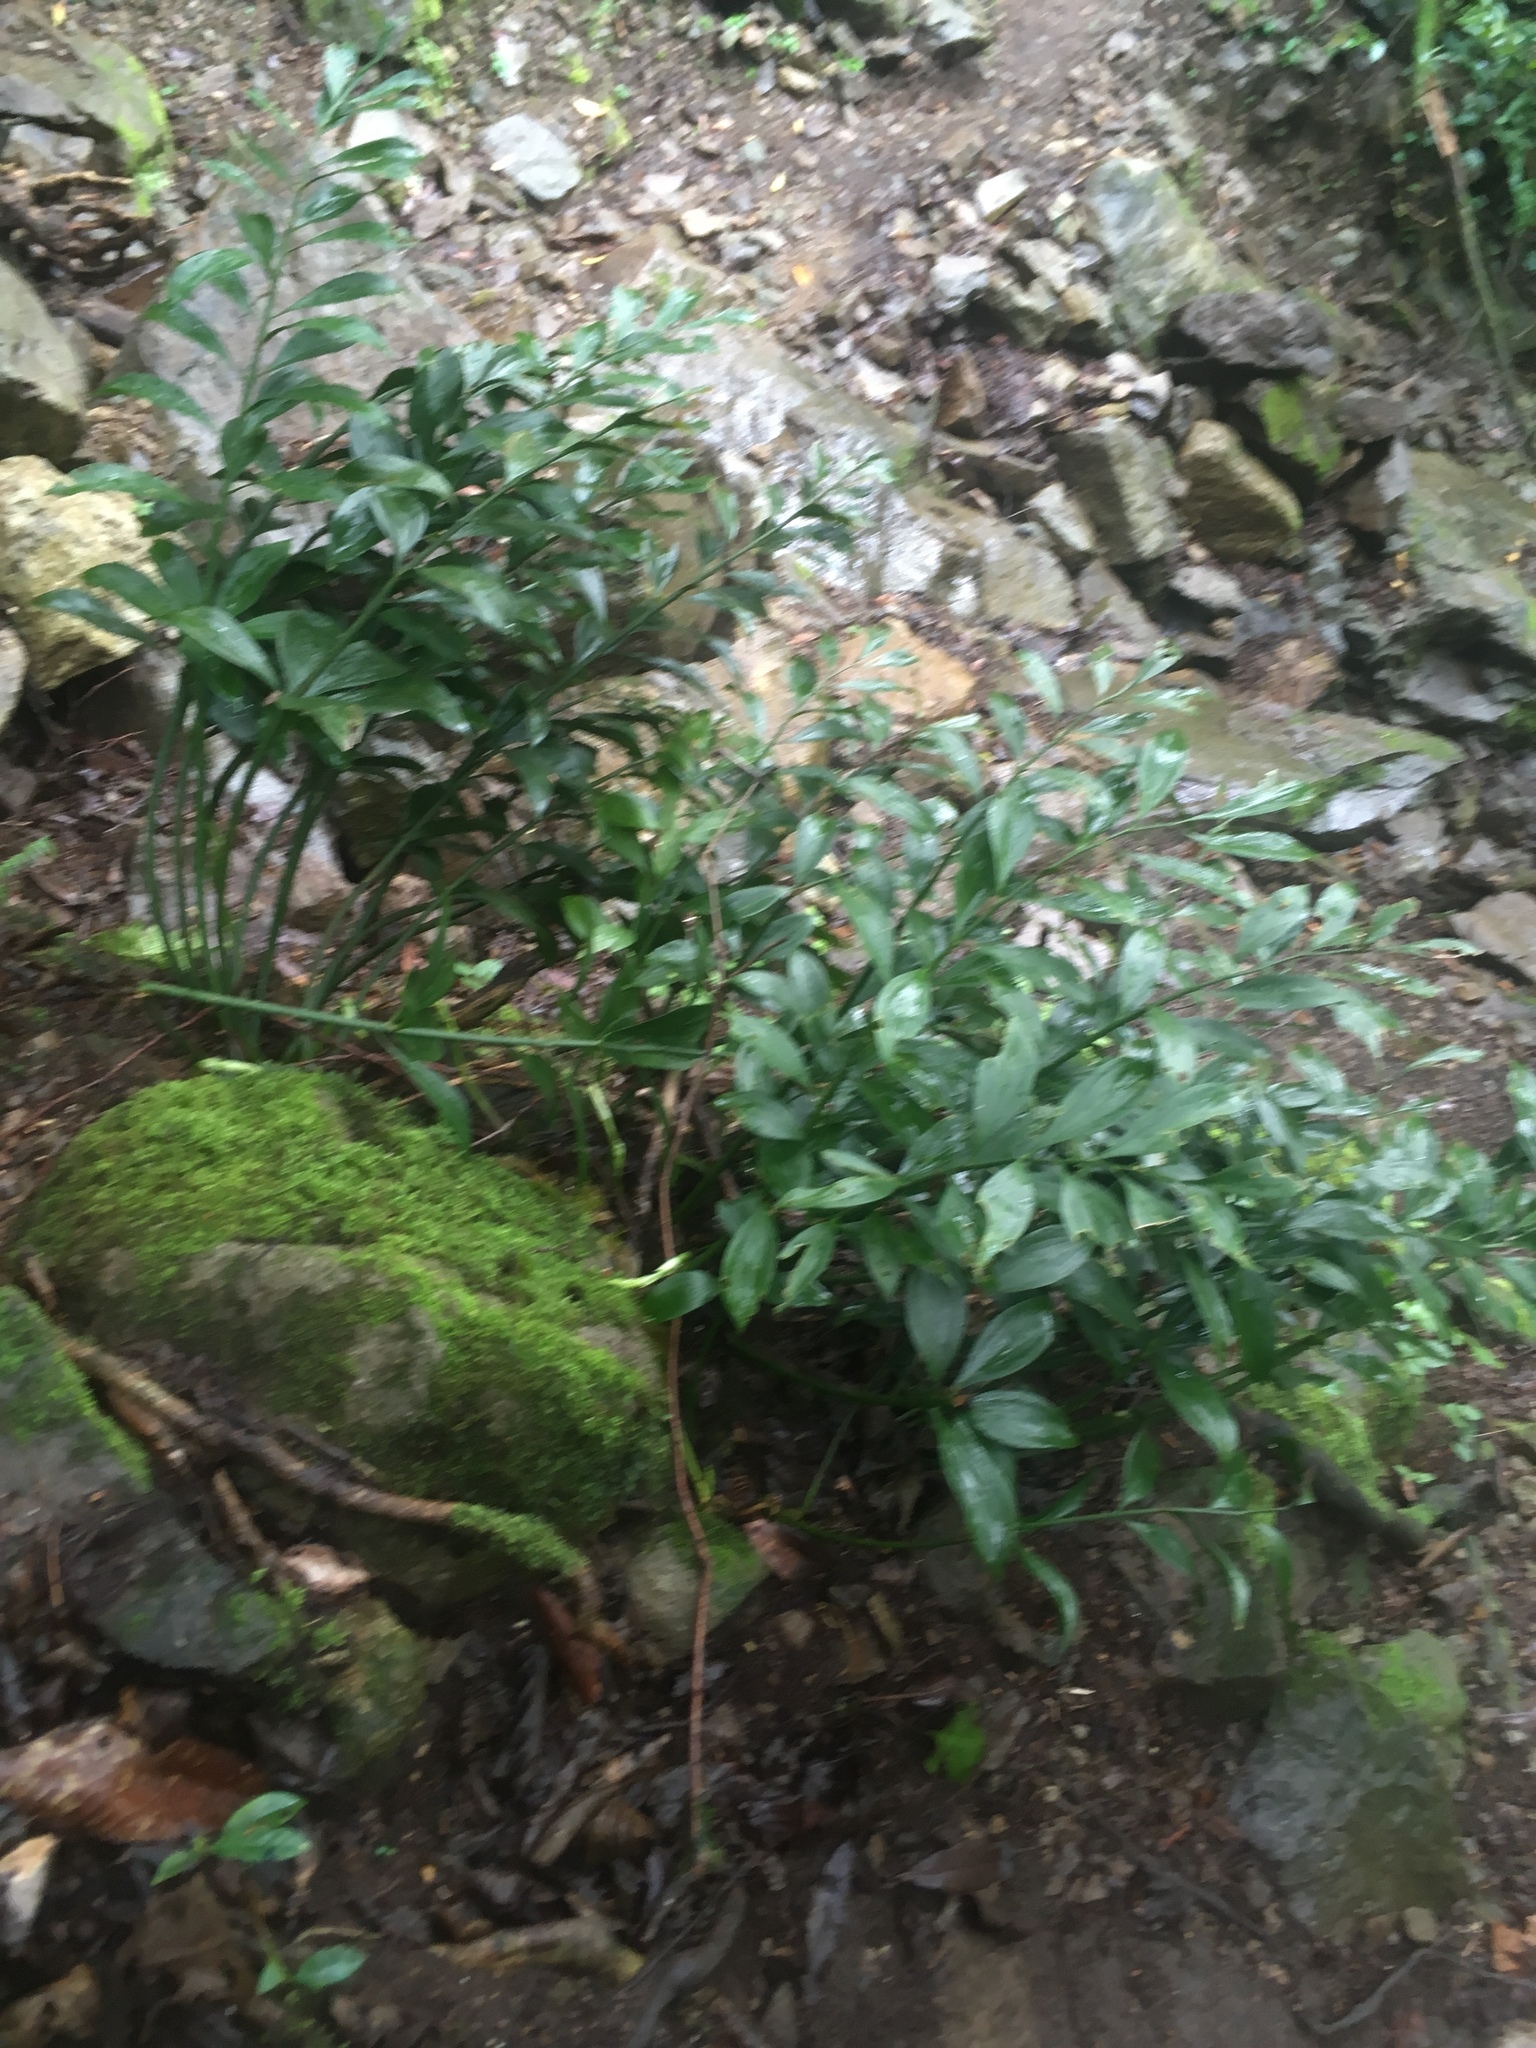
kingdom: Plantae
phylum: Tracheophyta
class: Liliopsida
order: Asparagales
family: Asparagaceae
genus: Ruscus
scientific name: Ruscus colchicus
